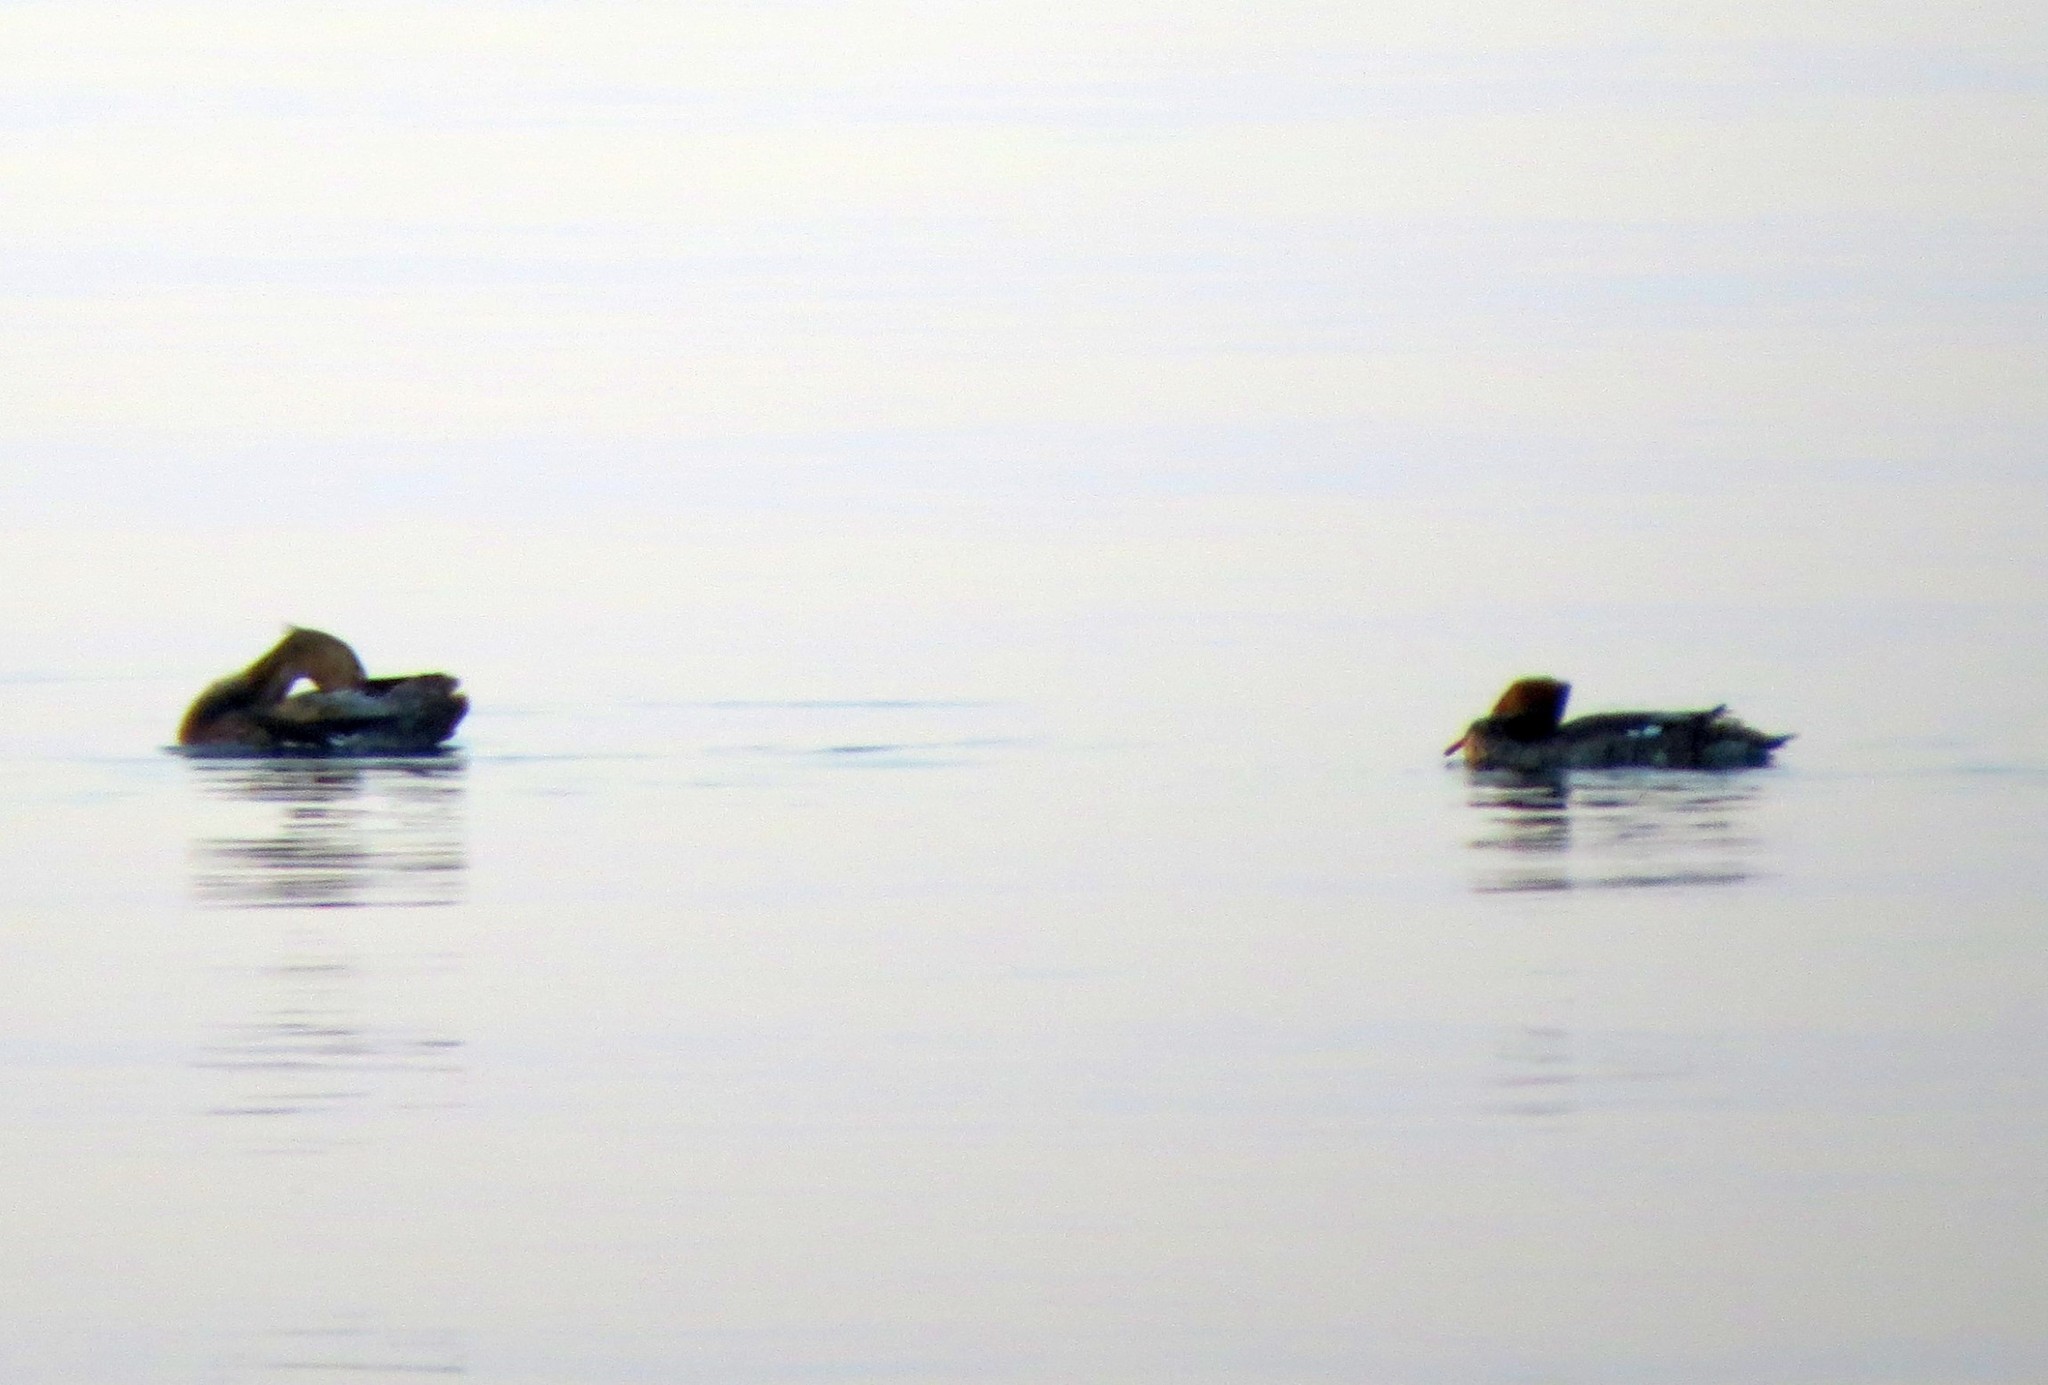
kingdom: Animalia
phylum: Chordata
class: Aves
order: Anseriformes
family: Anatidae
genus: Mergus
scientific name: Mergus merganser
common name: Common merganser
